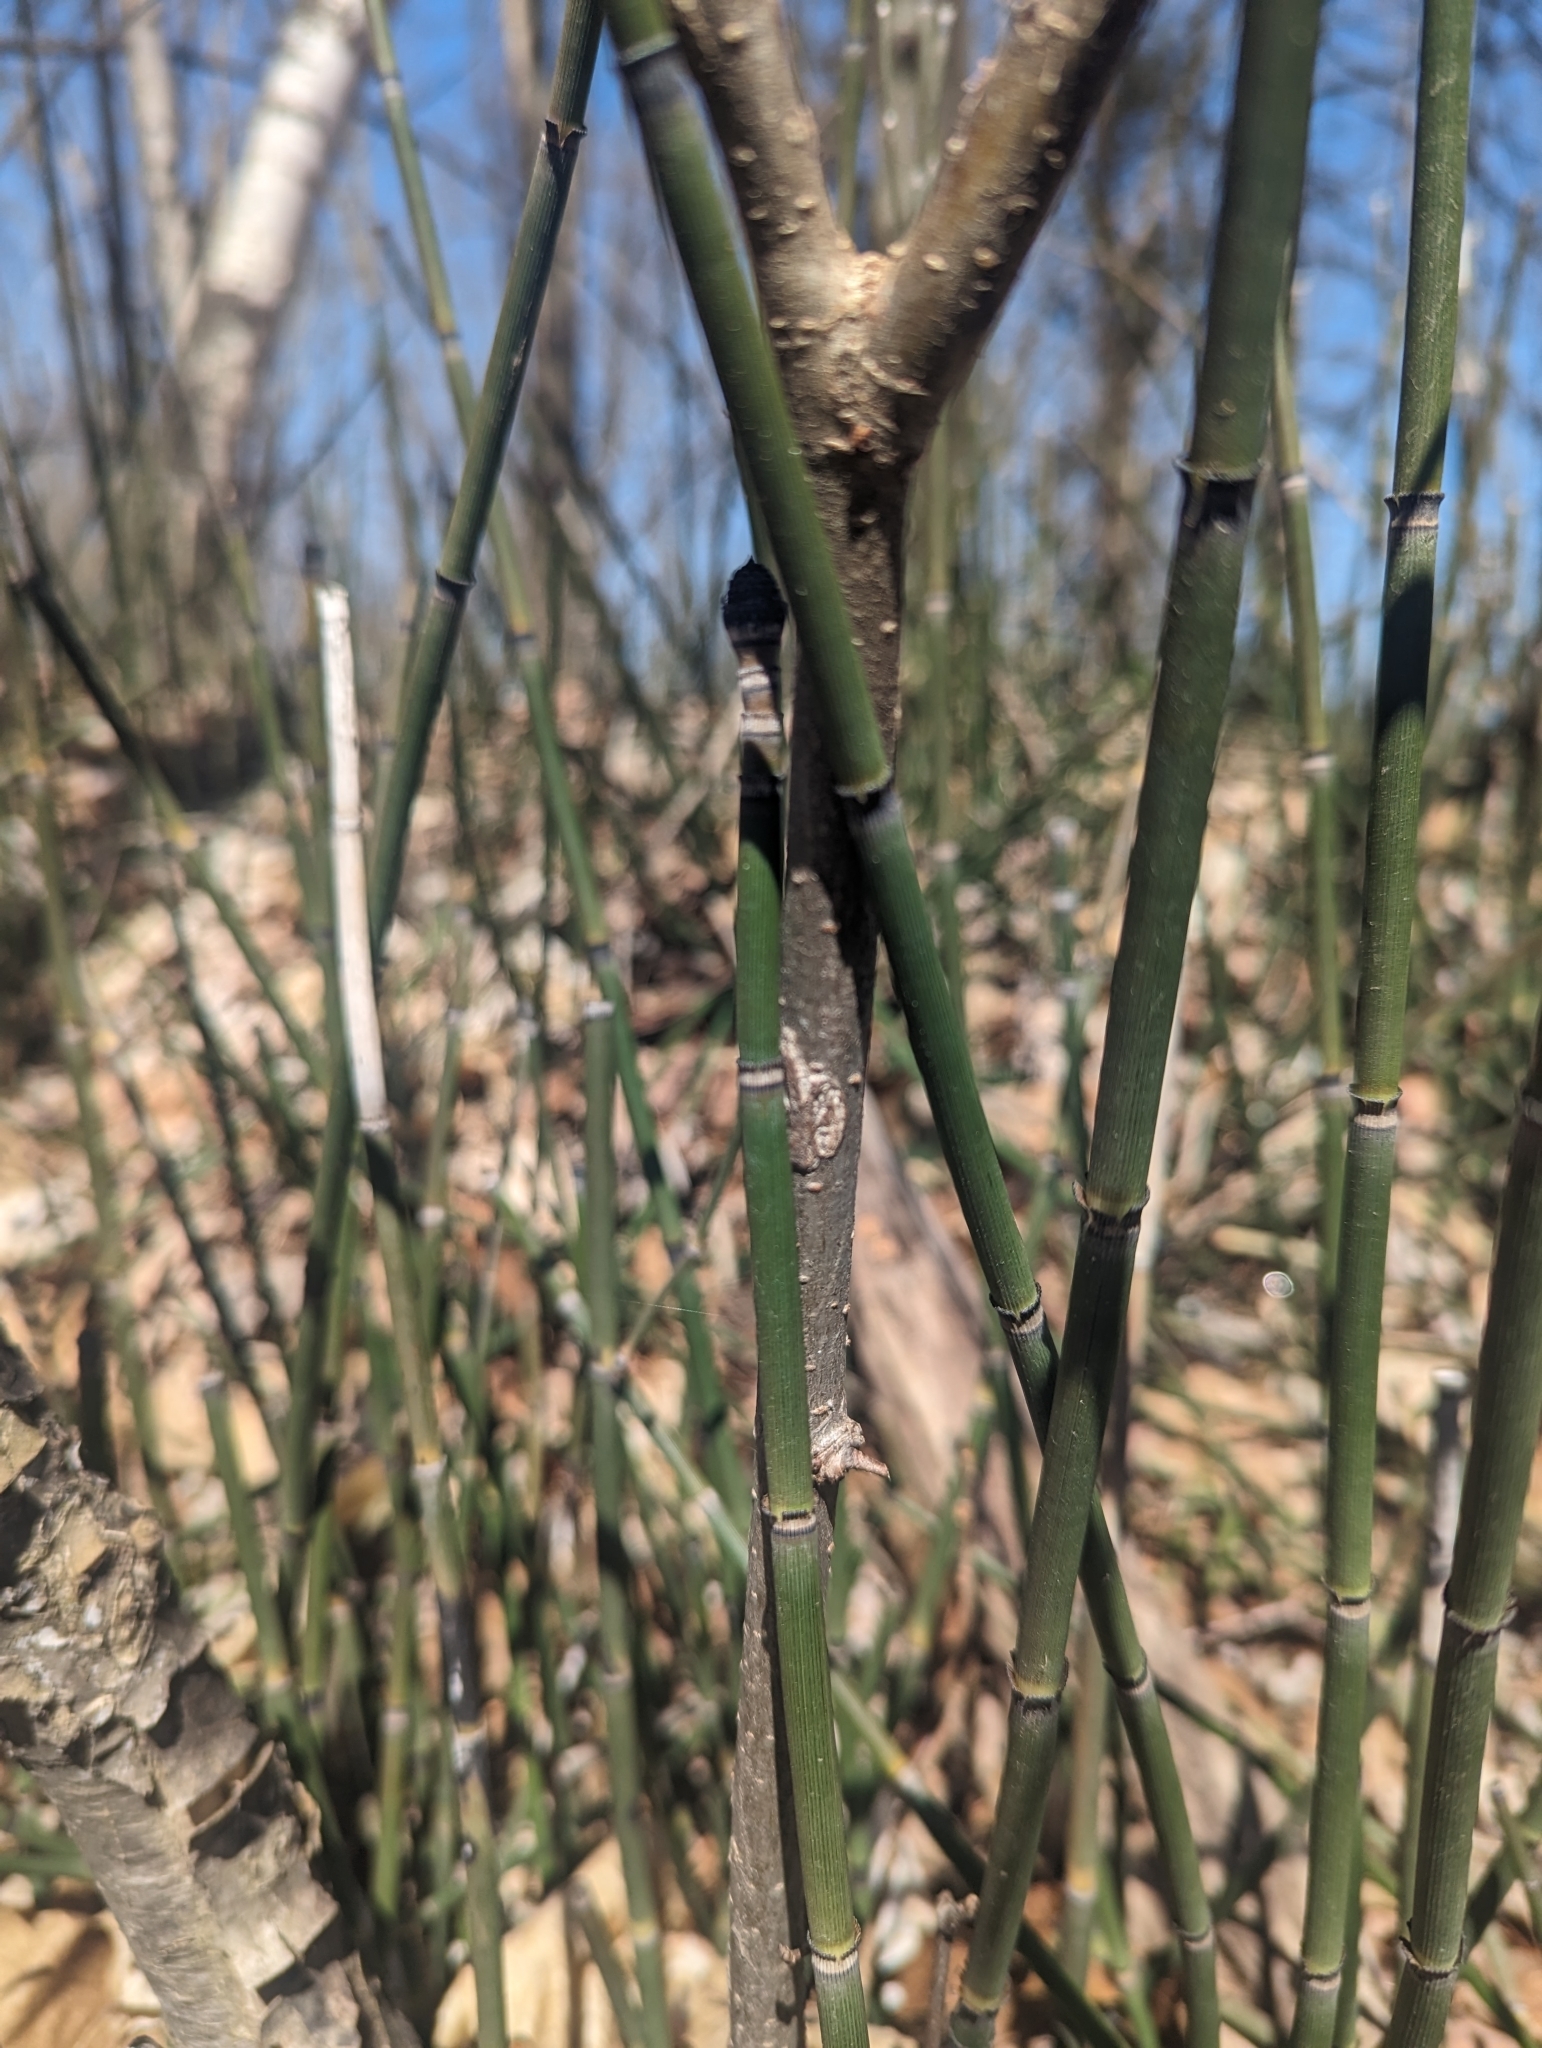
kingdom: Plantae
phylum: Tracheophyta
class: Polypodiopsida
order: Equisetales
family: Equisetaceae
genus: Equisetum
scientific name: Equisetum hyemale
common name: Rough horsetail
